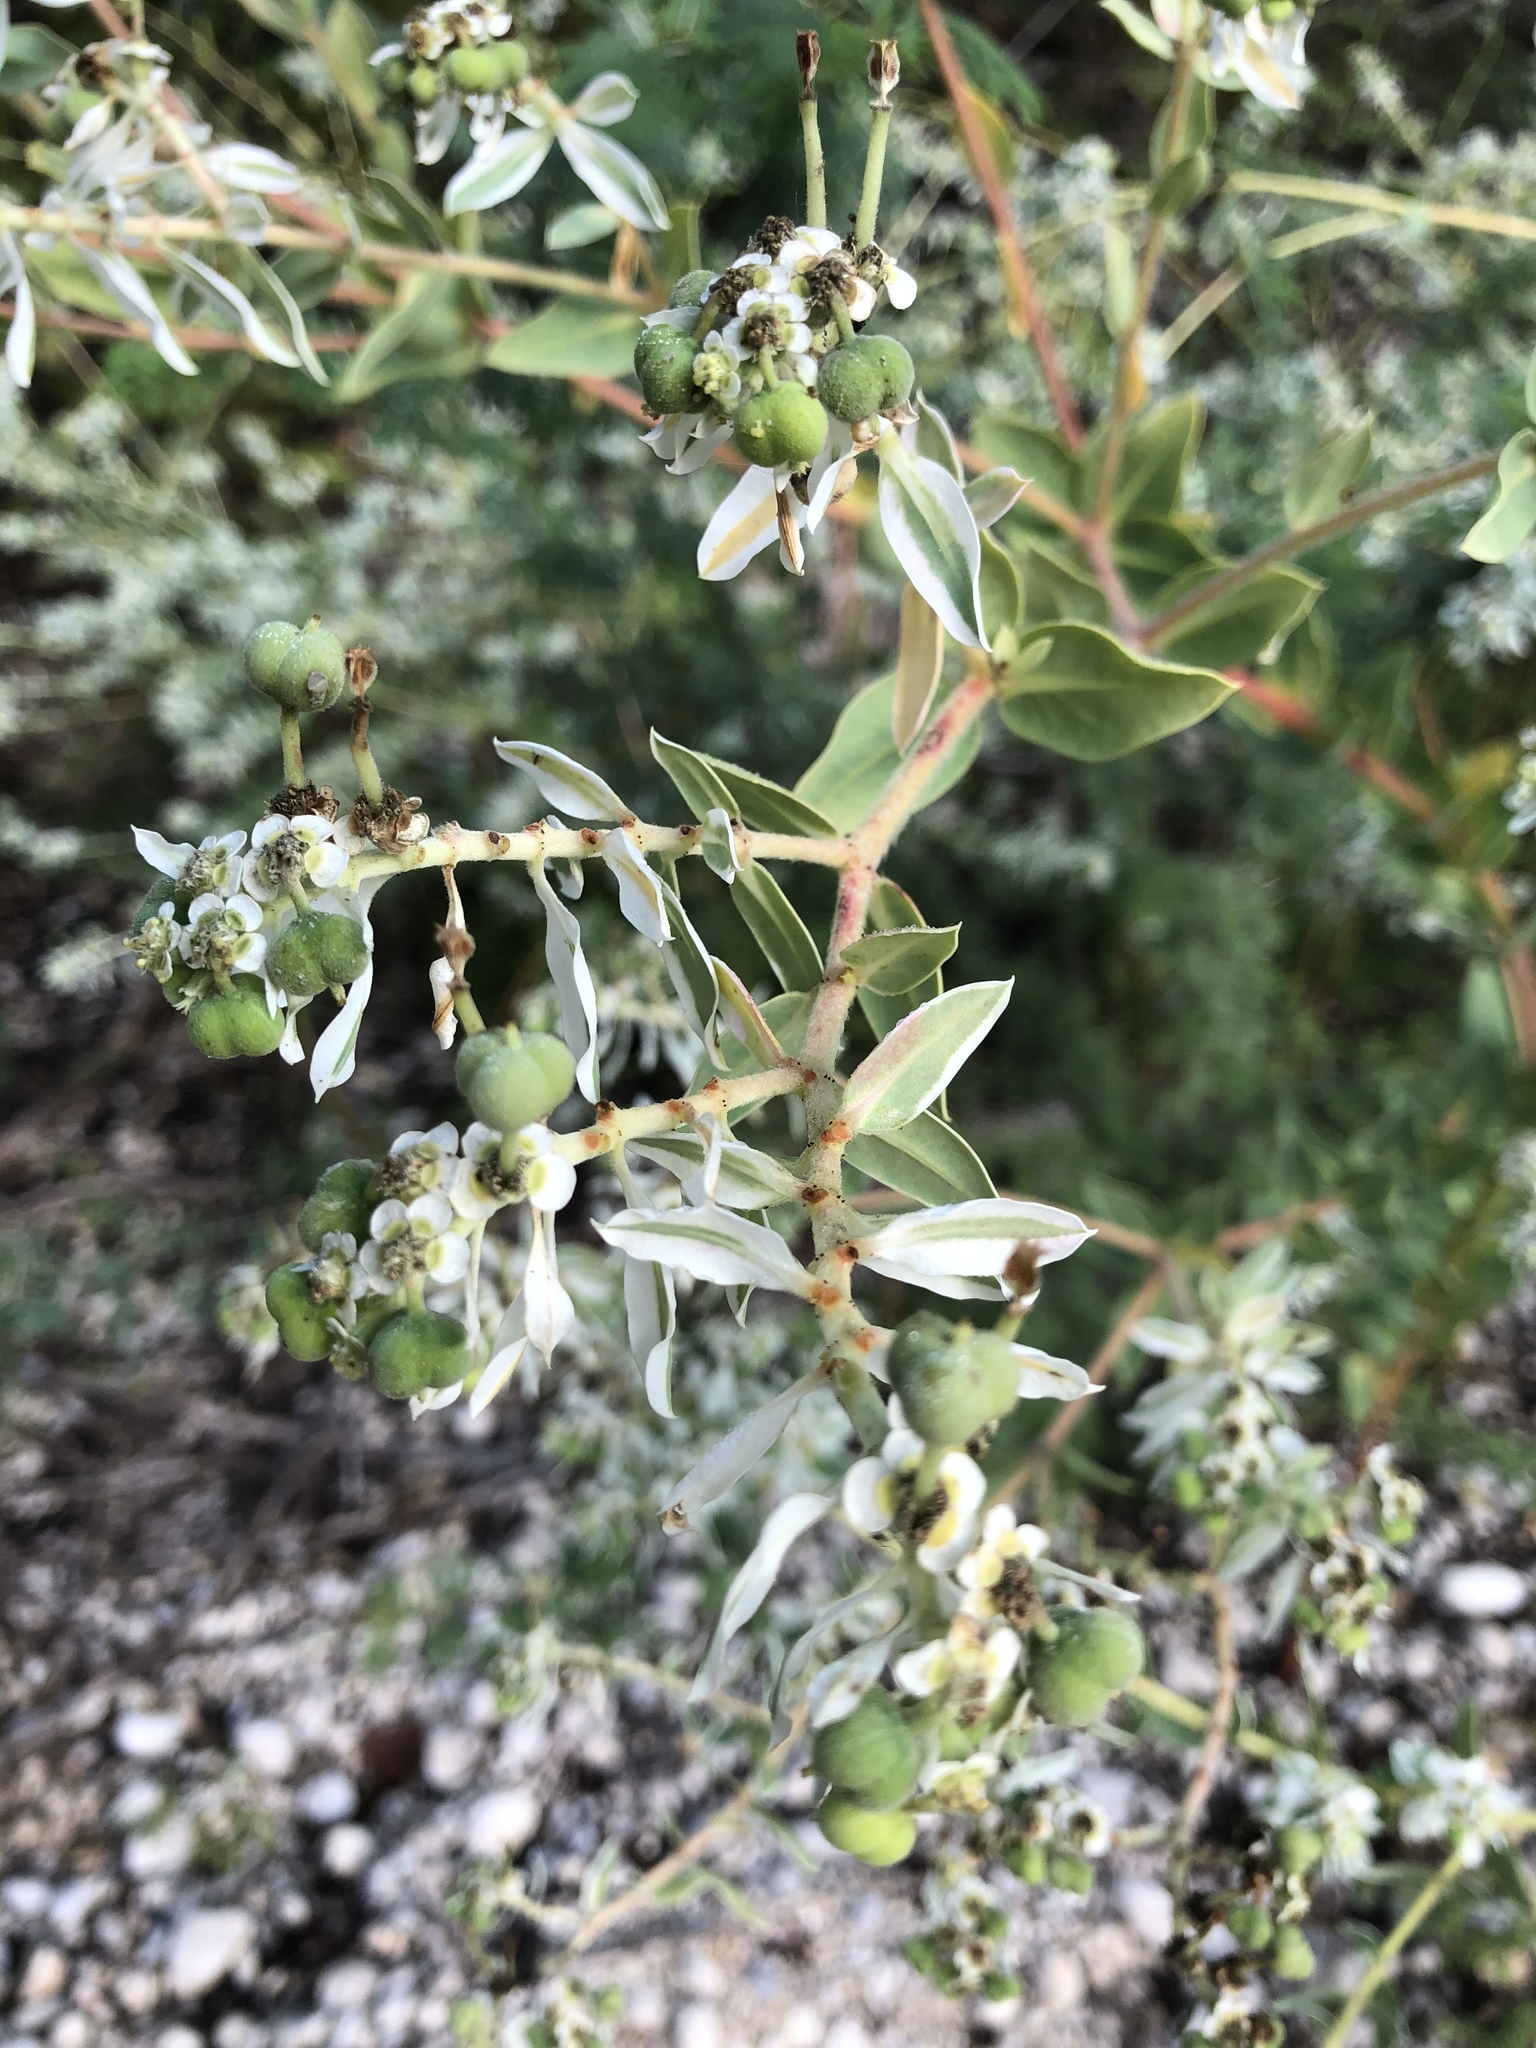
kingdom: Plantae
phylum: Tracheophyta
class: Magnoliopsida
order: Malpighiales
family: Euphorbiaceae
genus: Euphorbia
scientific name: Euphorbia marginata
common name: Ghostweed
